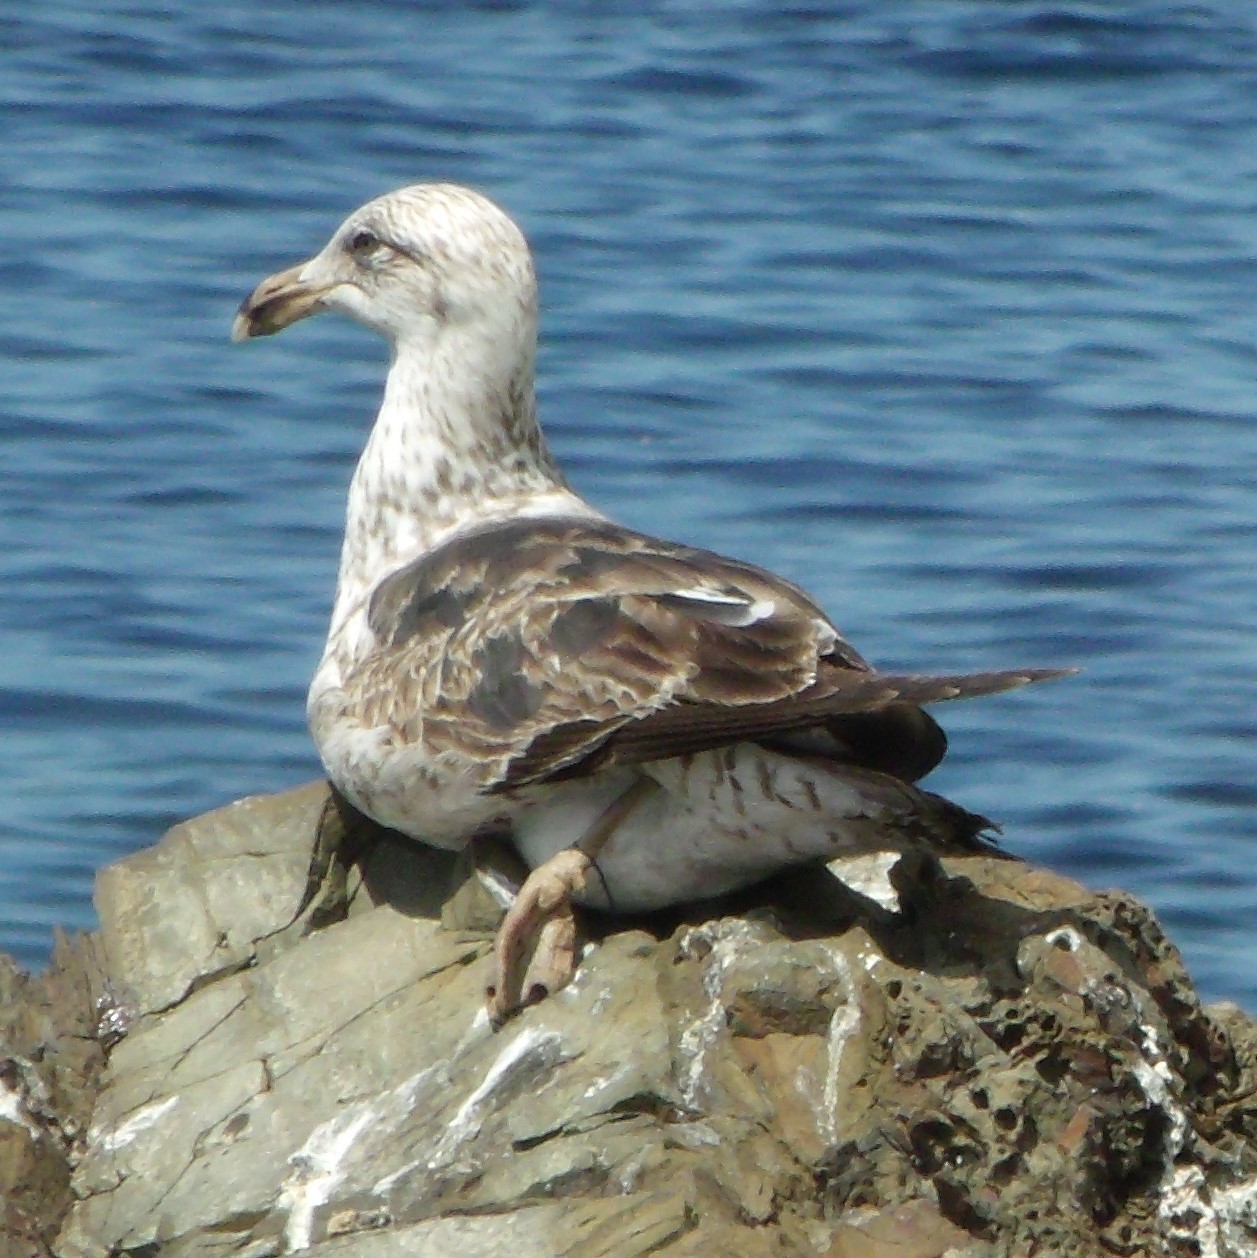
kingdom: Animalia
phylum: Chordata
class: Aves
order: Charadriiformes
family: Laridae
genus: Larus
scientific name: Larus dominicanus
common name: Kelp gull
